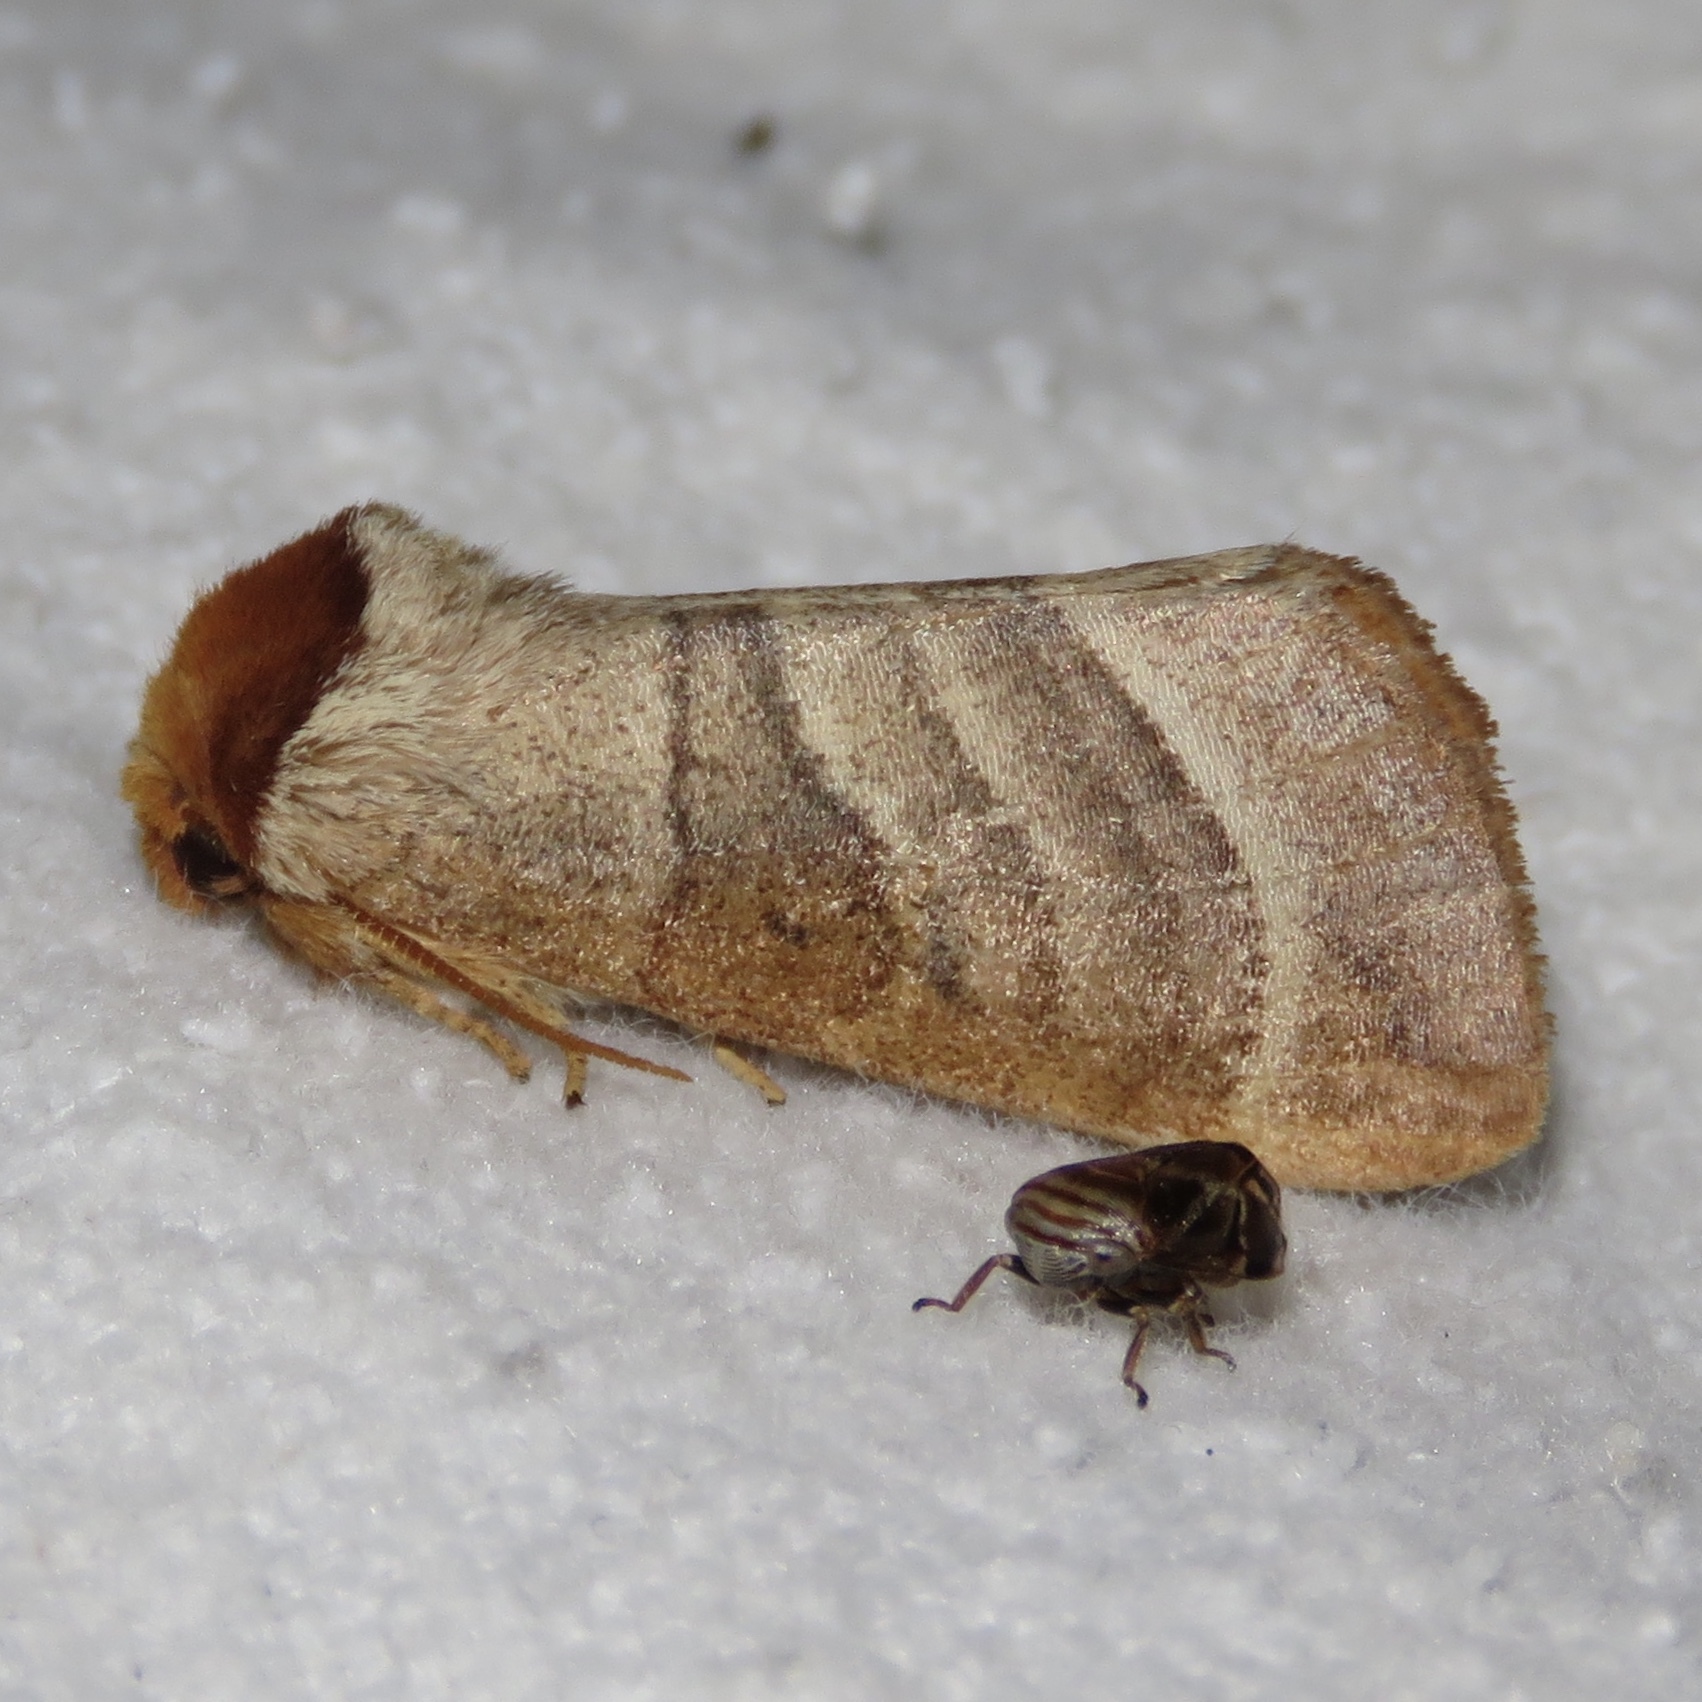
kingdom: Animalia
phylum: Arthropoda
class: Insecta
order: Lepidoptera
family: Notodontidae
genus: Datana
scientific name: Datana integerrima
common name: Walnut caterpillar
